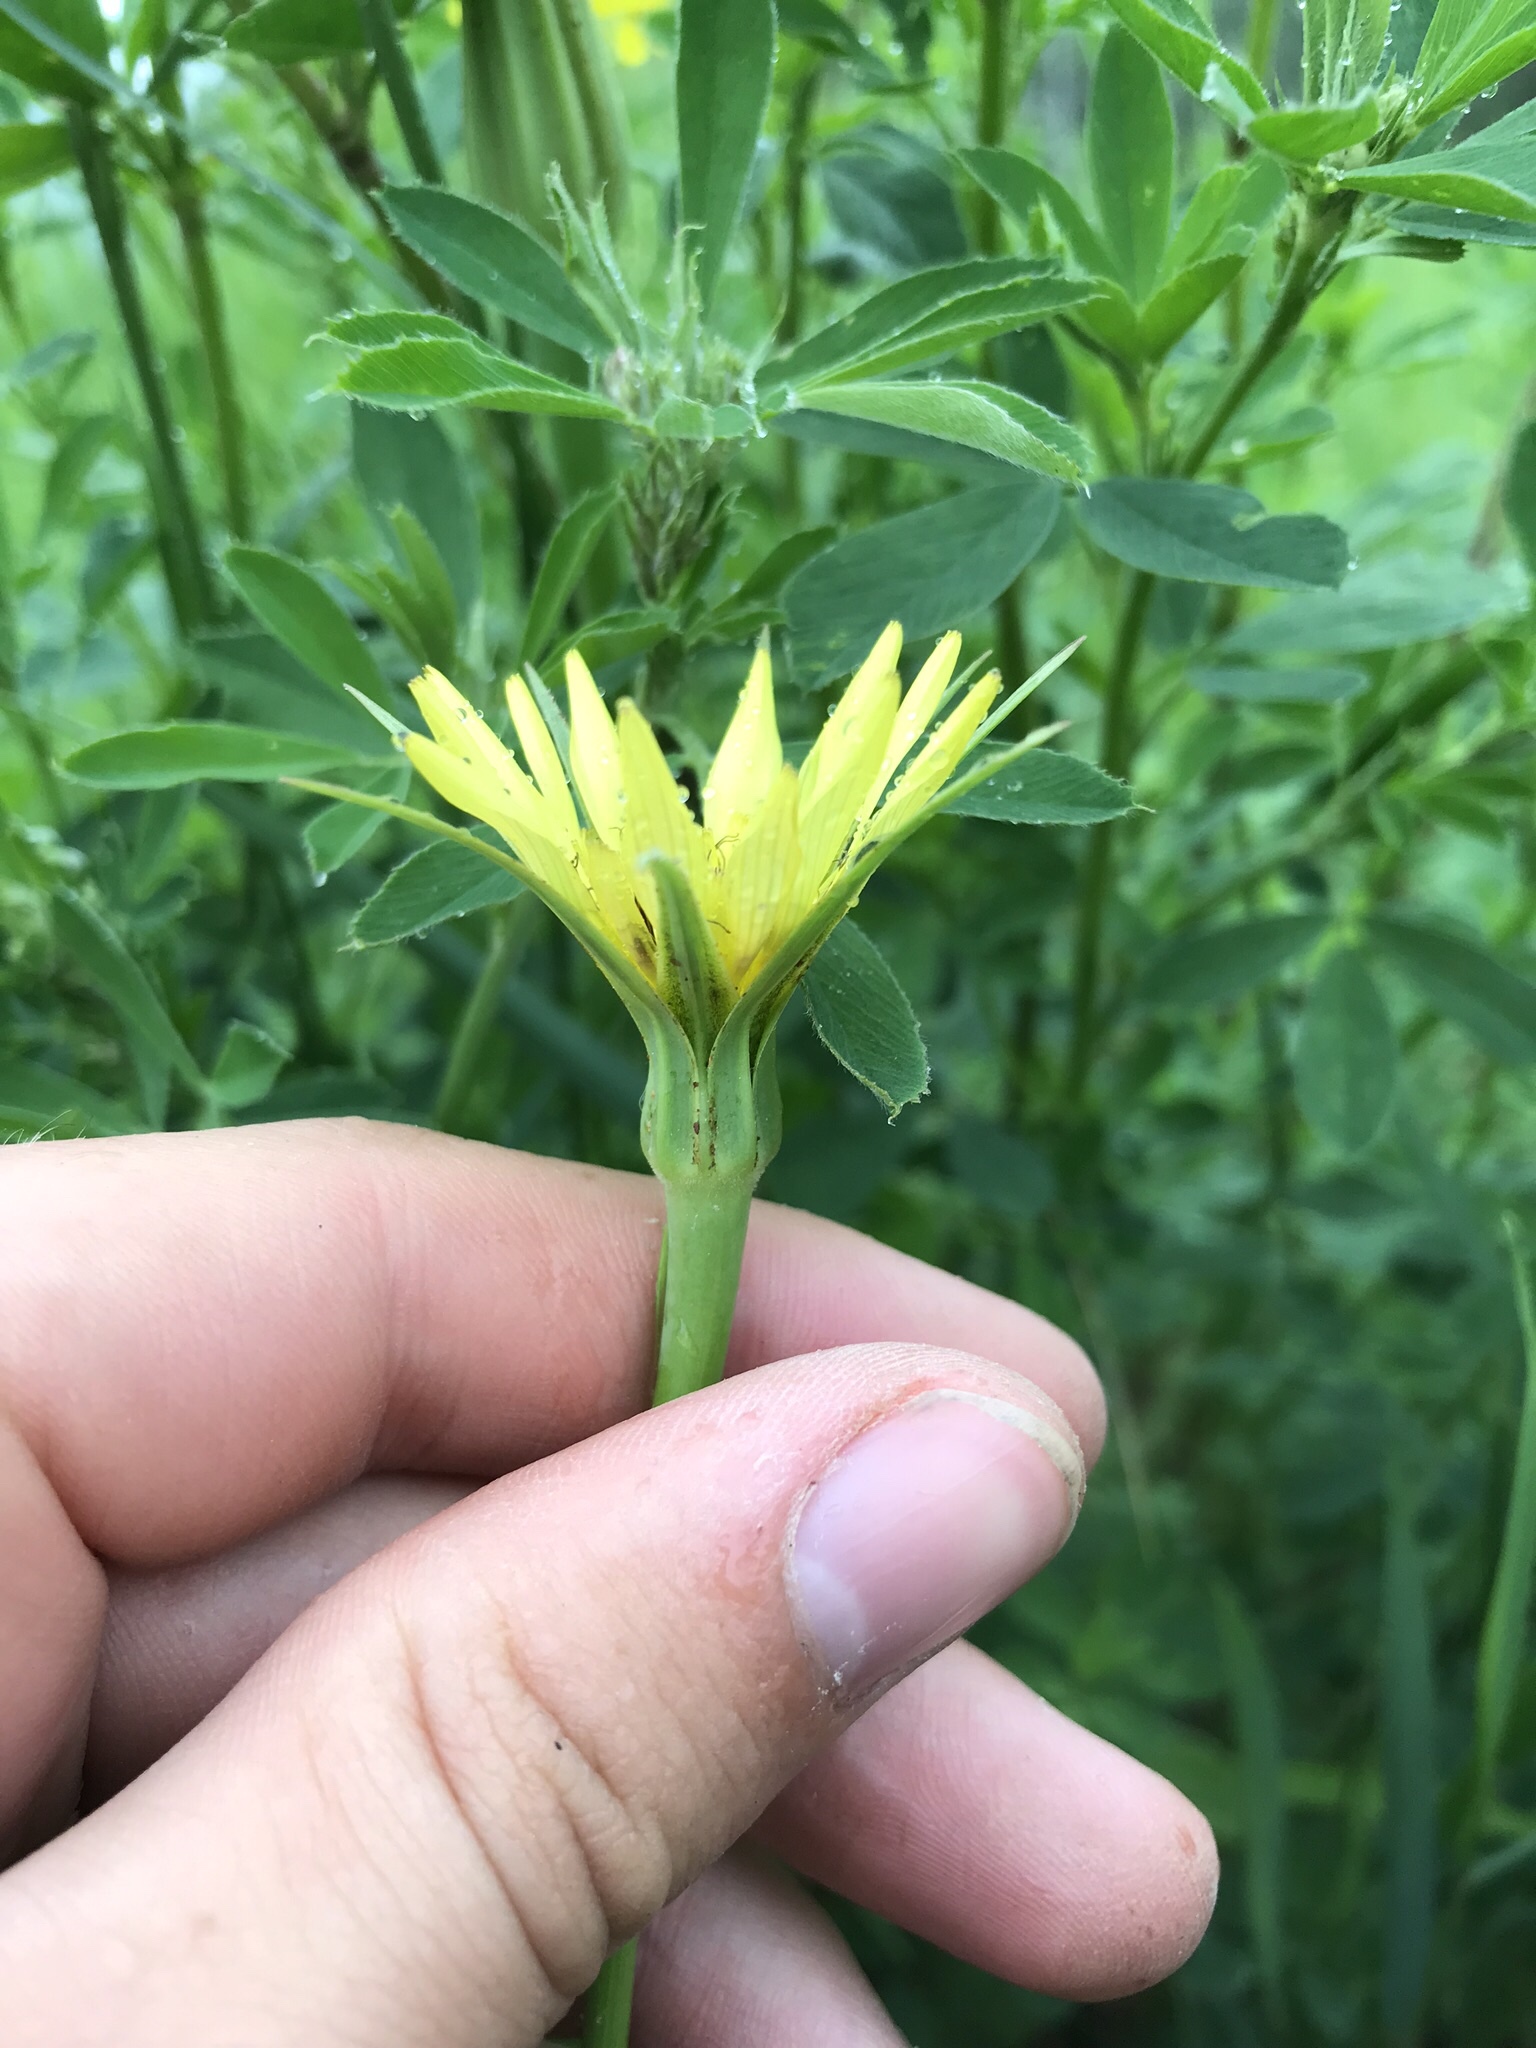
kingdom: Plantae
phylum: Tracheophyta
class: Magnoliopsida
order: Asterales
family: Asteraceae
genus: Tragopogon
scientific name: Tragopogon dubius
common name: Yellow salsify
